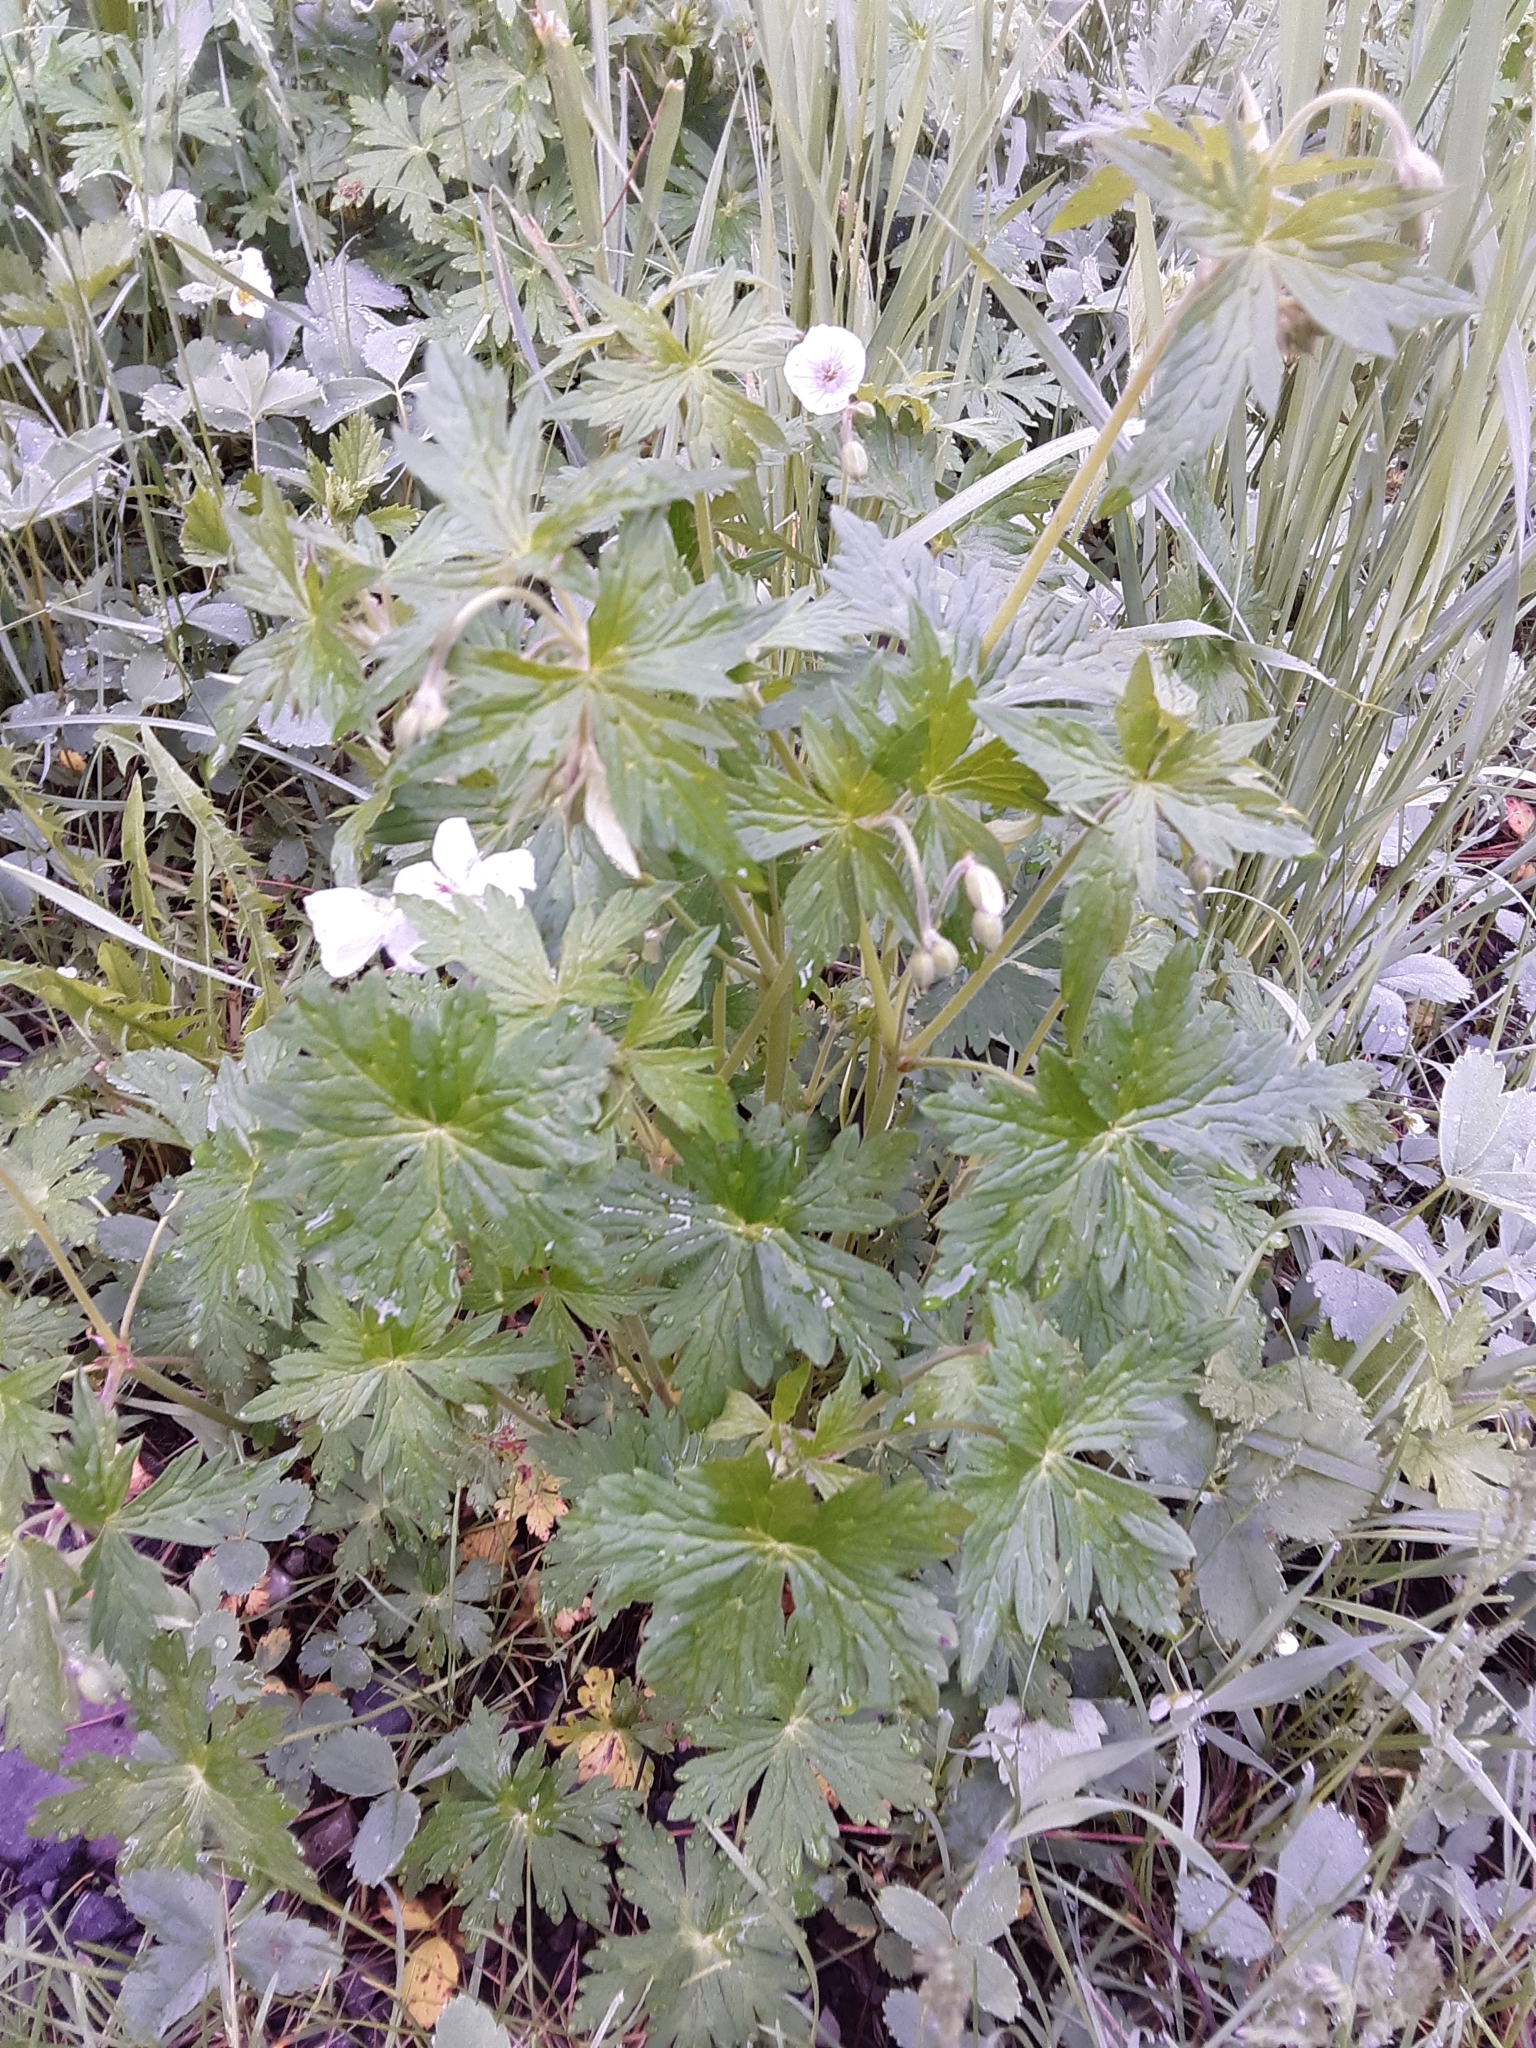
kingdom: Plantae
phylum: Tracheophyta
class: Magnoliopsida
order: Geraniales
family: Geraniaceae
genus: Geranium
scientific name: Geranium richardsonii
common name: Richardson's crane's-bill
